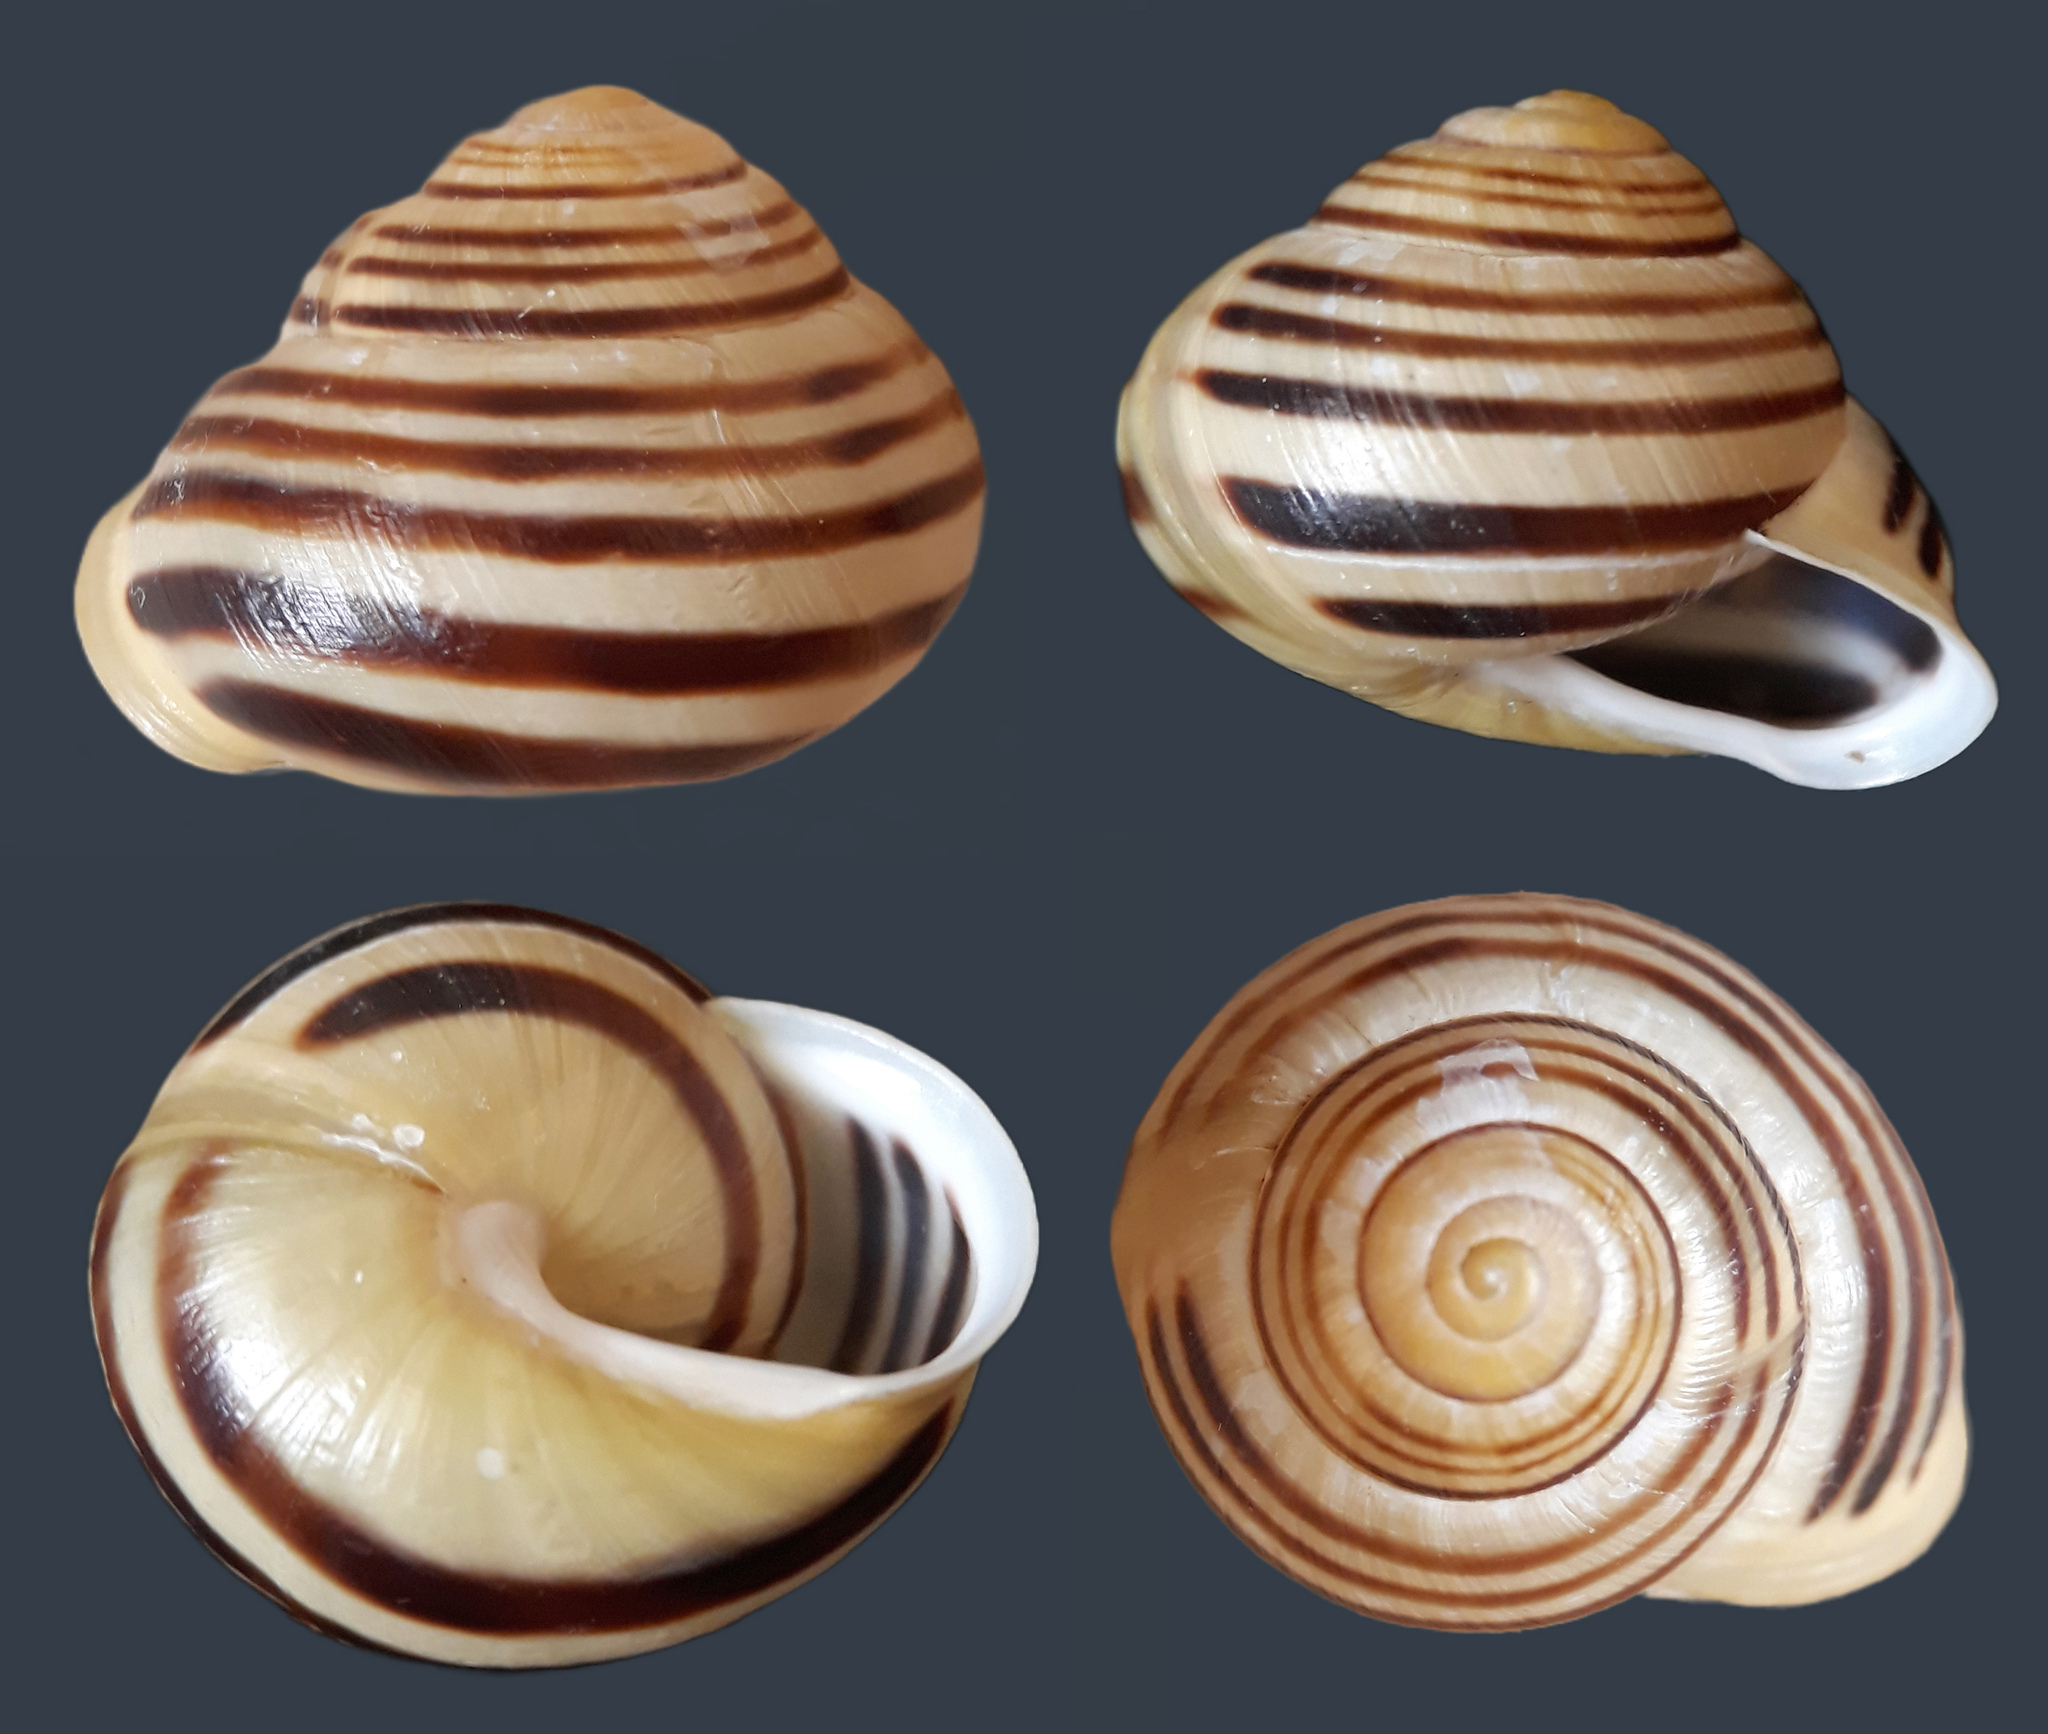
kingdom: Animalia
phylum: Mollusca
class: Gastropoda
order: Stylommatophora
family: Helicidae
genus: Cepaea
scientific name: Cepaea hortensis
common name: White-lip gardensnail
